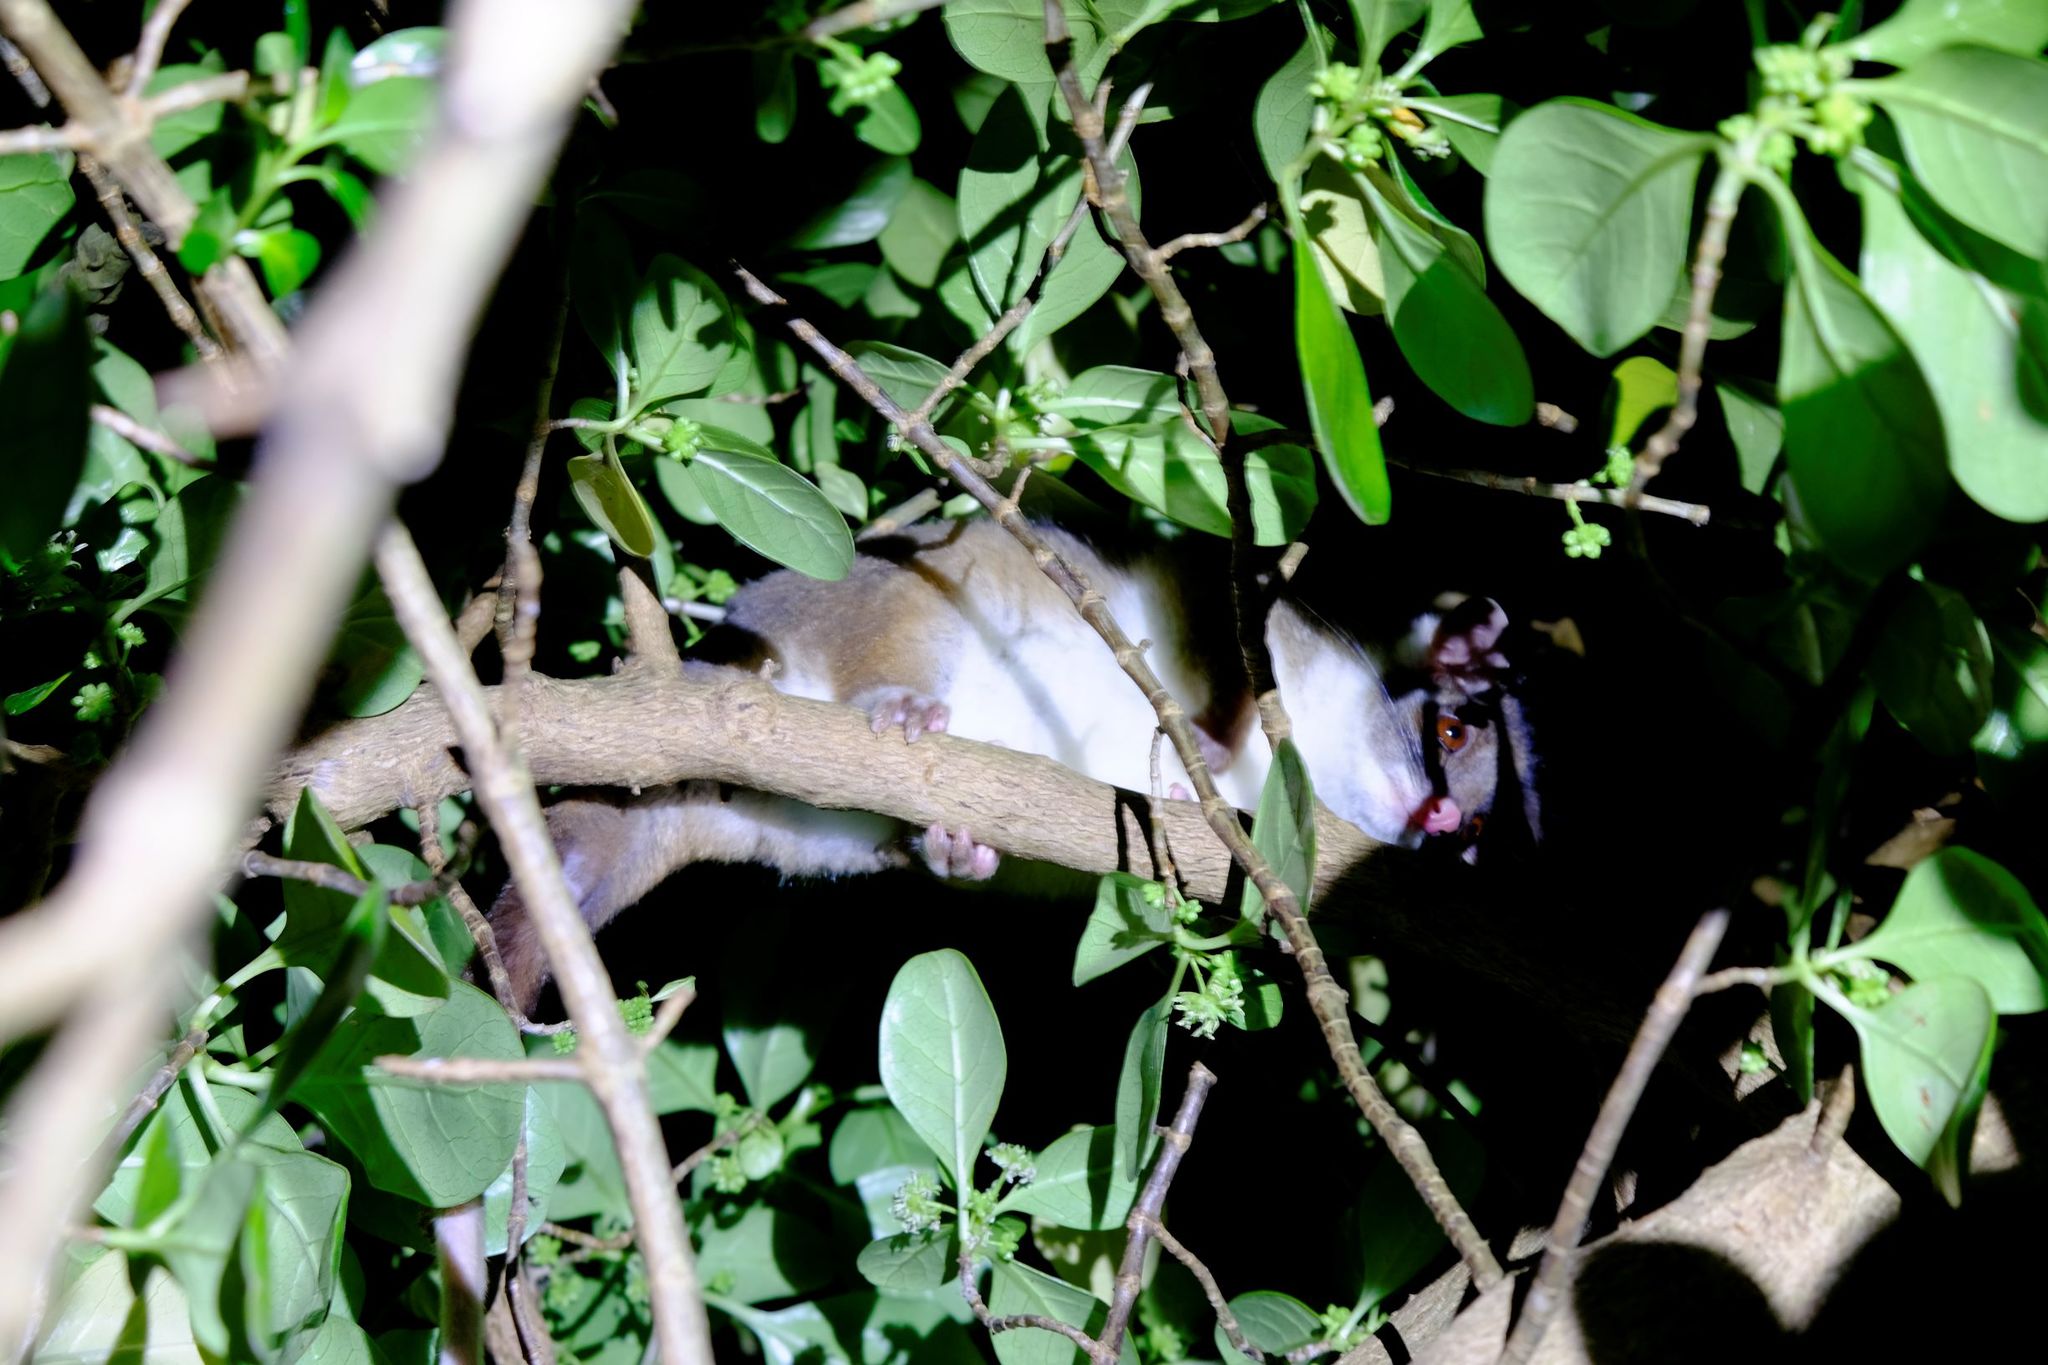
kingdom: Animalia
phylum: Chordata
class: Mammalia
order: Diprotodontia
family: Pseudocheiridae
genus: Pseudocheirus
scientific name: Pseudocheirus peregrinus
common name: Common ringtail possum
